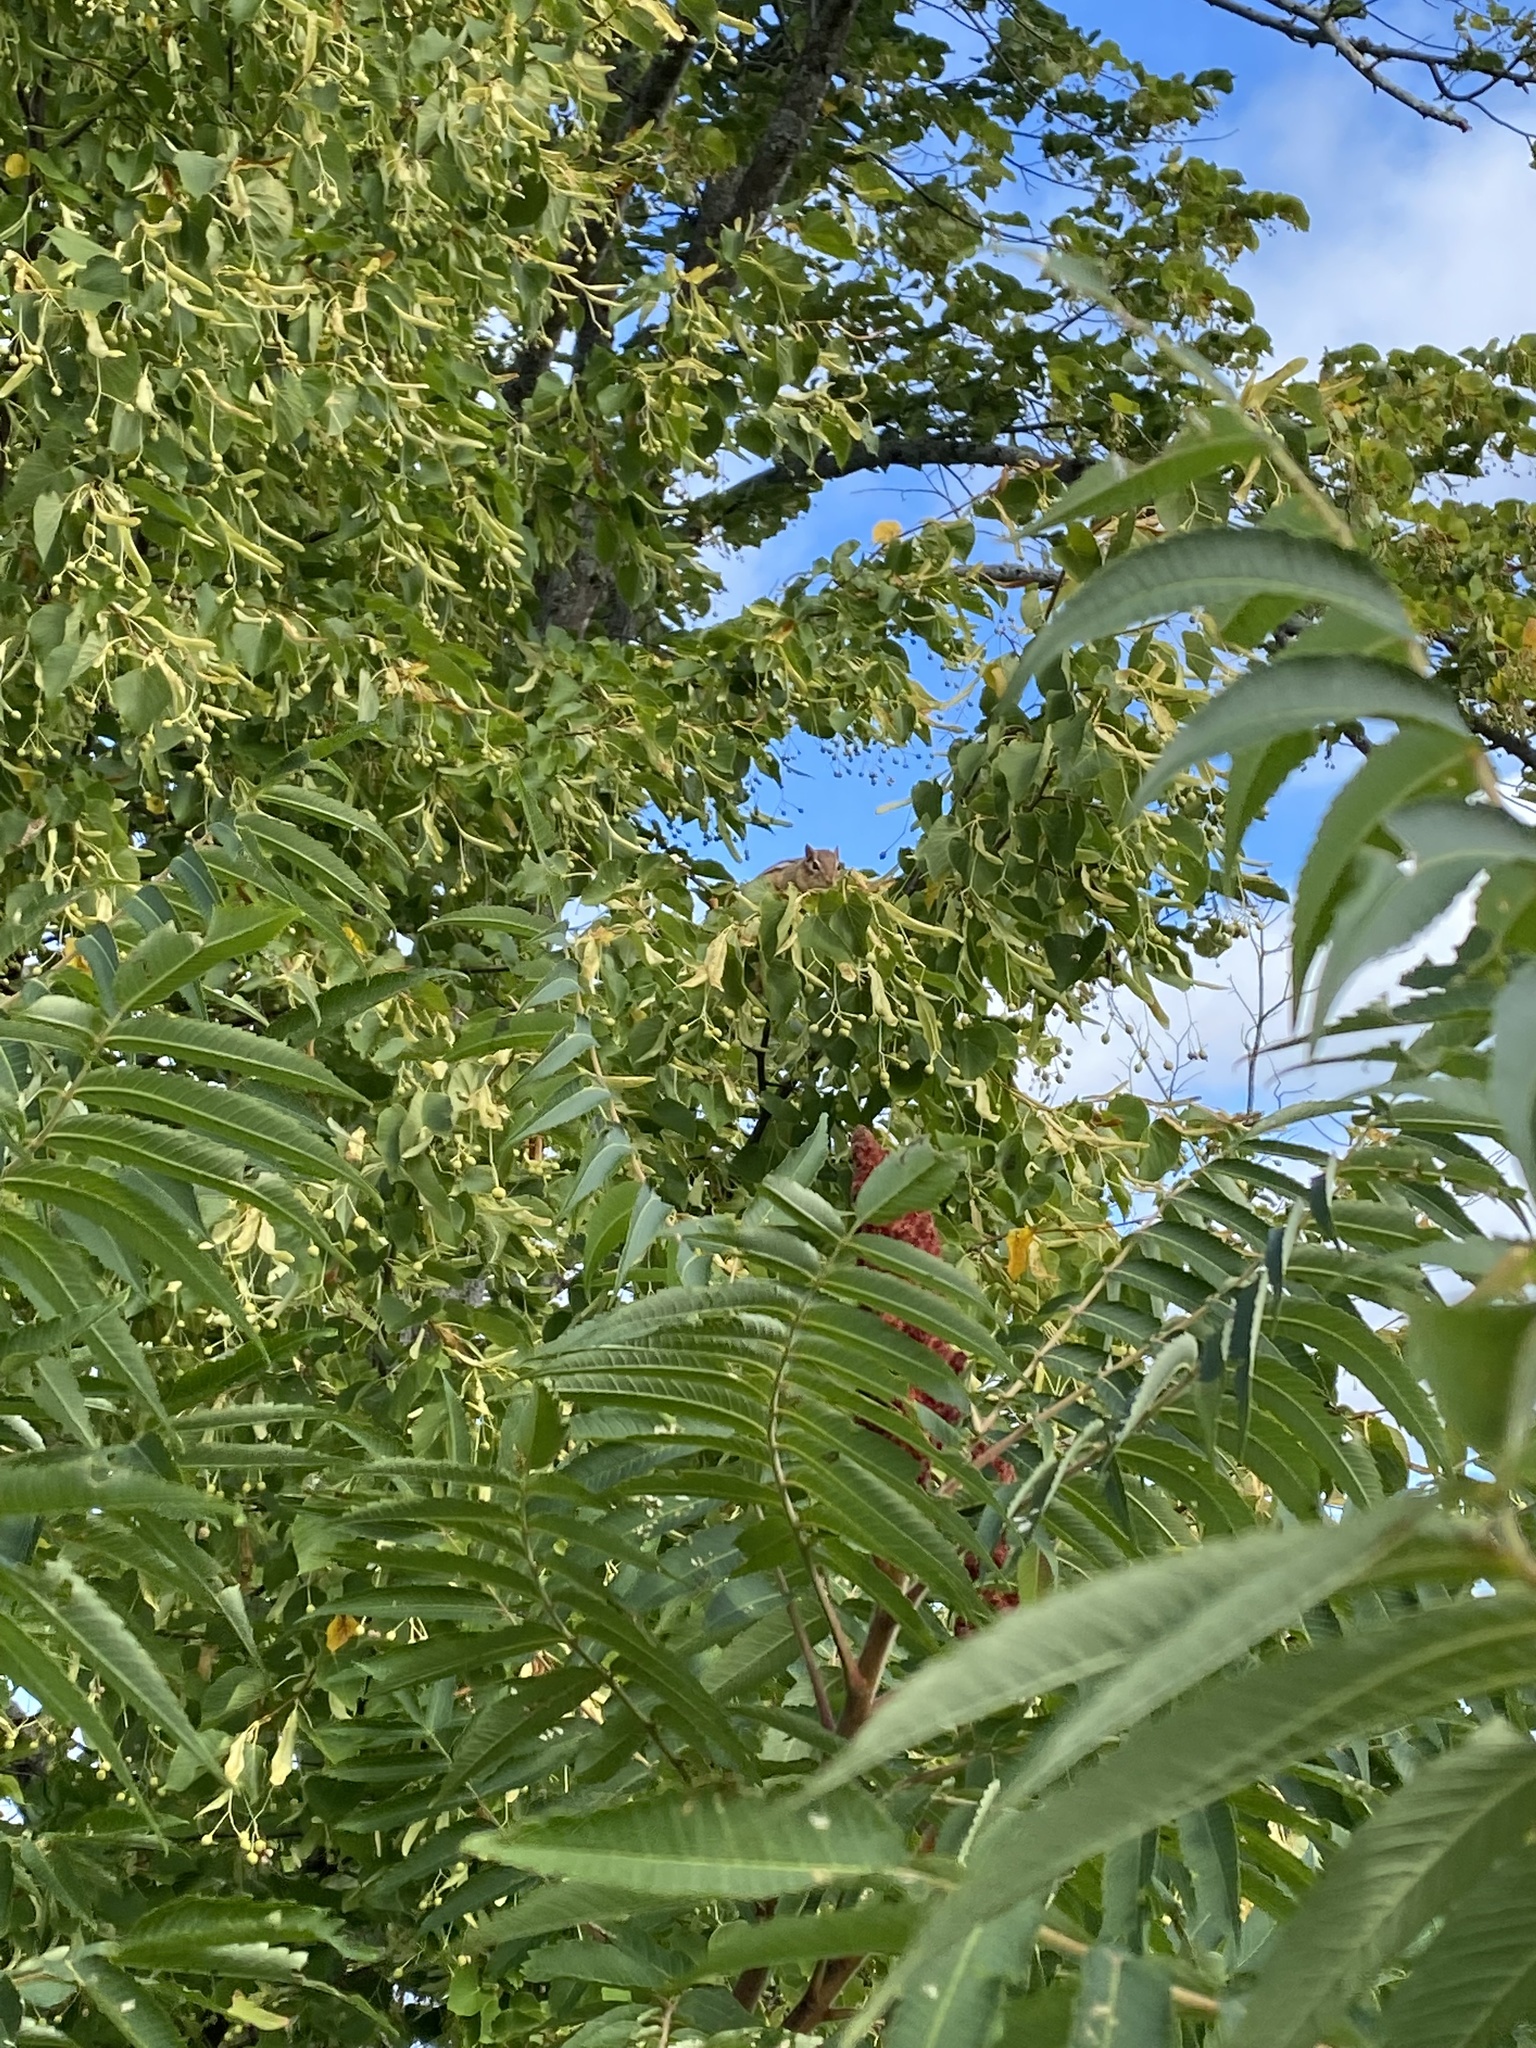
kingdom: Animalia
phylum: Chordata
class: Mammalia
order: Rodentia
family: Sciuridae
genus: Tamias
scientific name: Tamias striatus
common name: Eastern chipmunk
